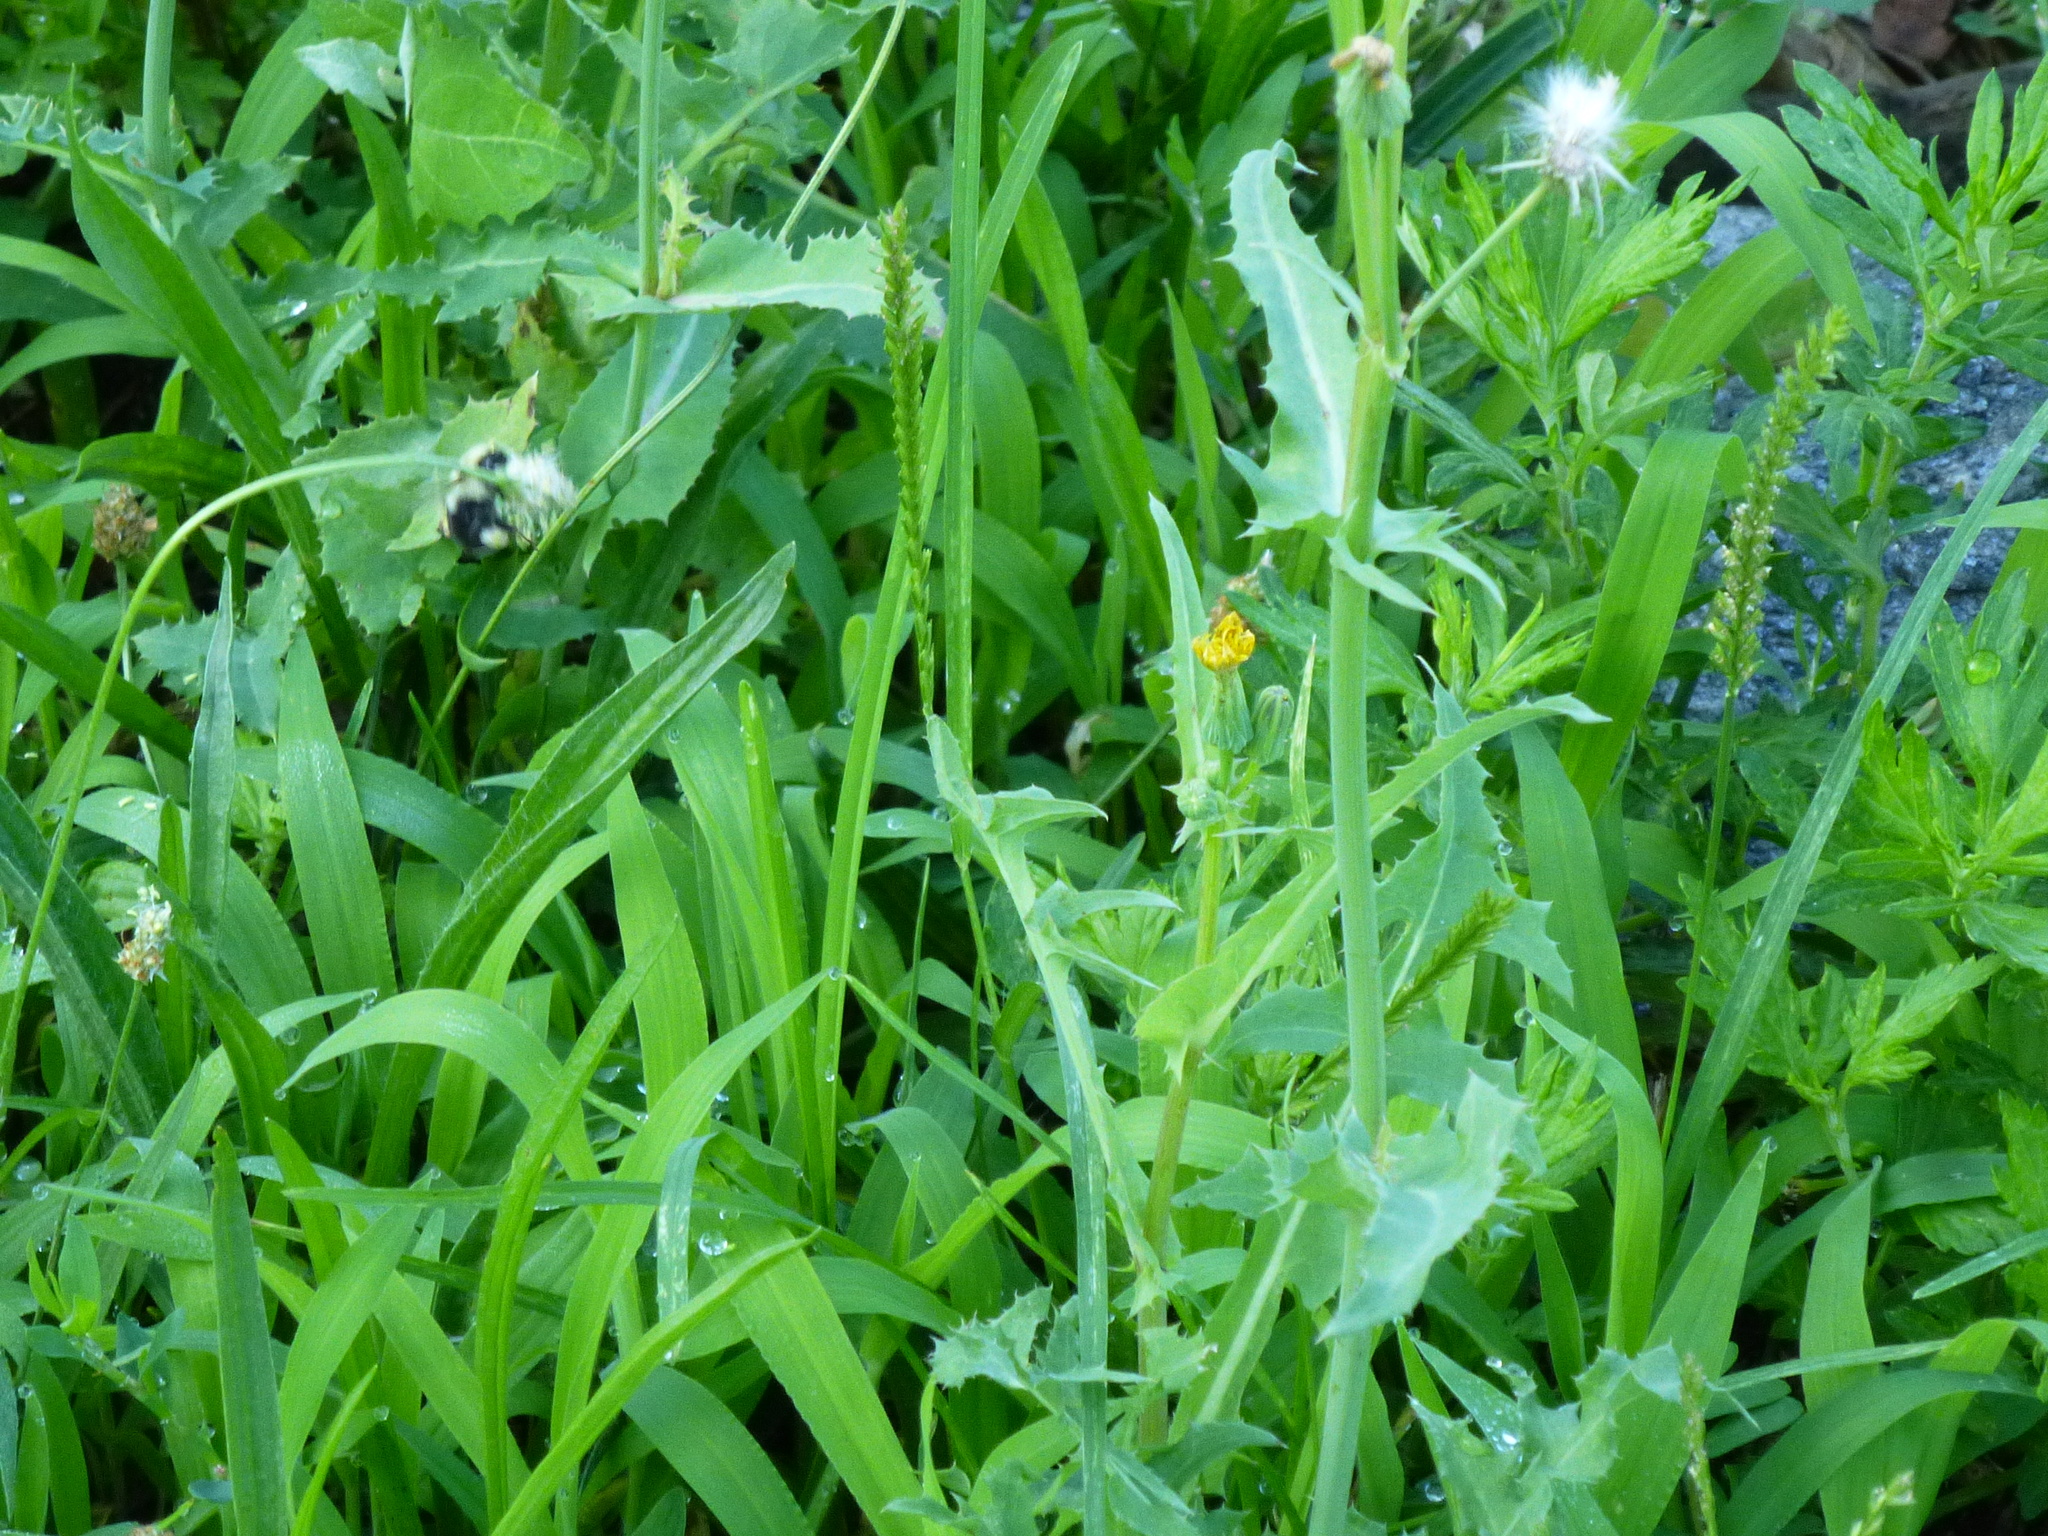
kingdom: Animalia
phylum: Arthropoda
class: Insecta
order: Hymenoptera
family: Apidae
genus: Bombus
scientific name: Bombus impatiens
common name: Common eastern bumble bee
